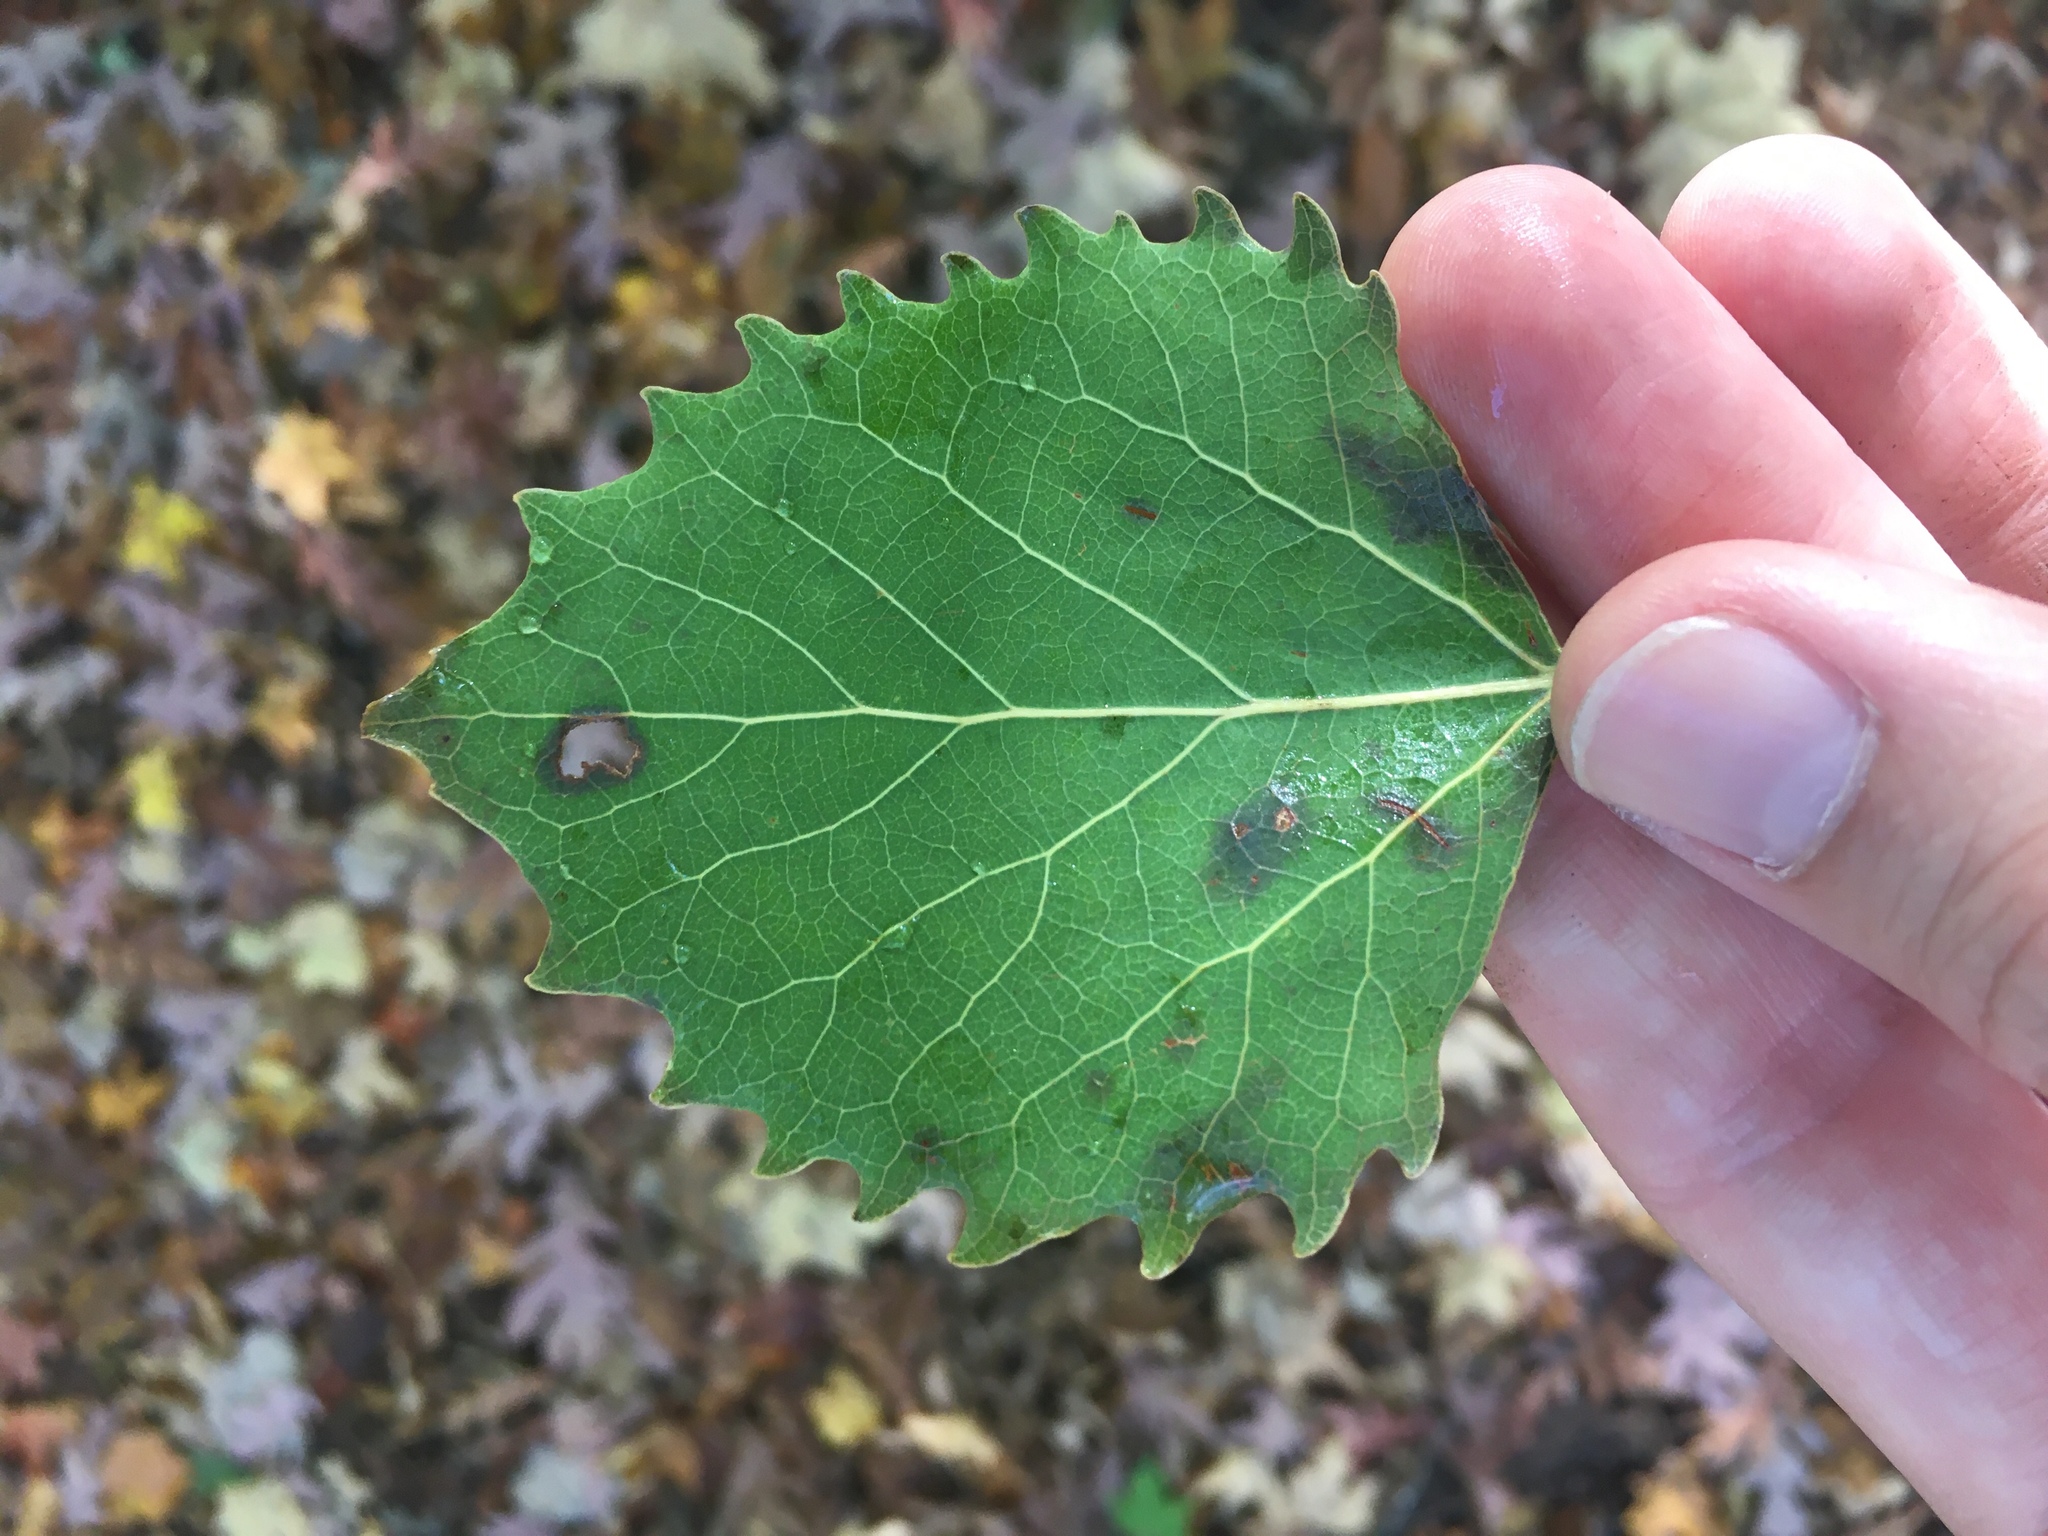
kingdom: Plantae
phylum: Tracheophyta
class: Magnoliopsida
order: Malpighiales
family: Salicaceae
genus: Populus
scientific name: Populus grandidentata
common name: Bigtooth aspen
